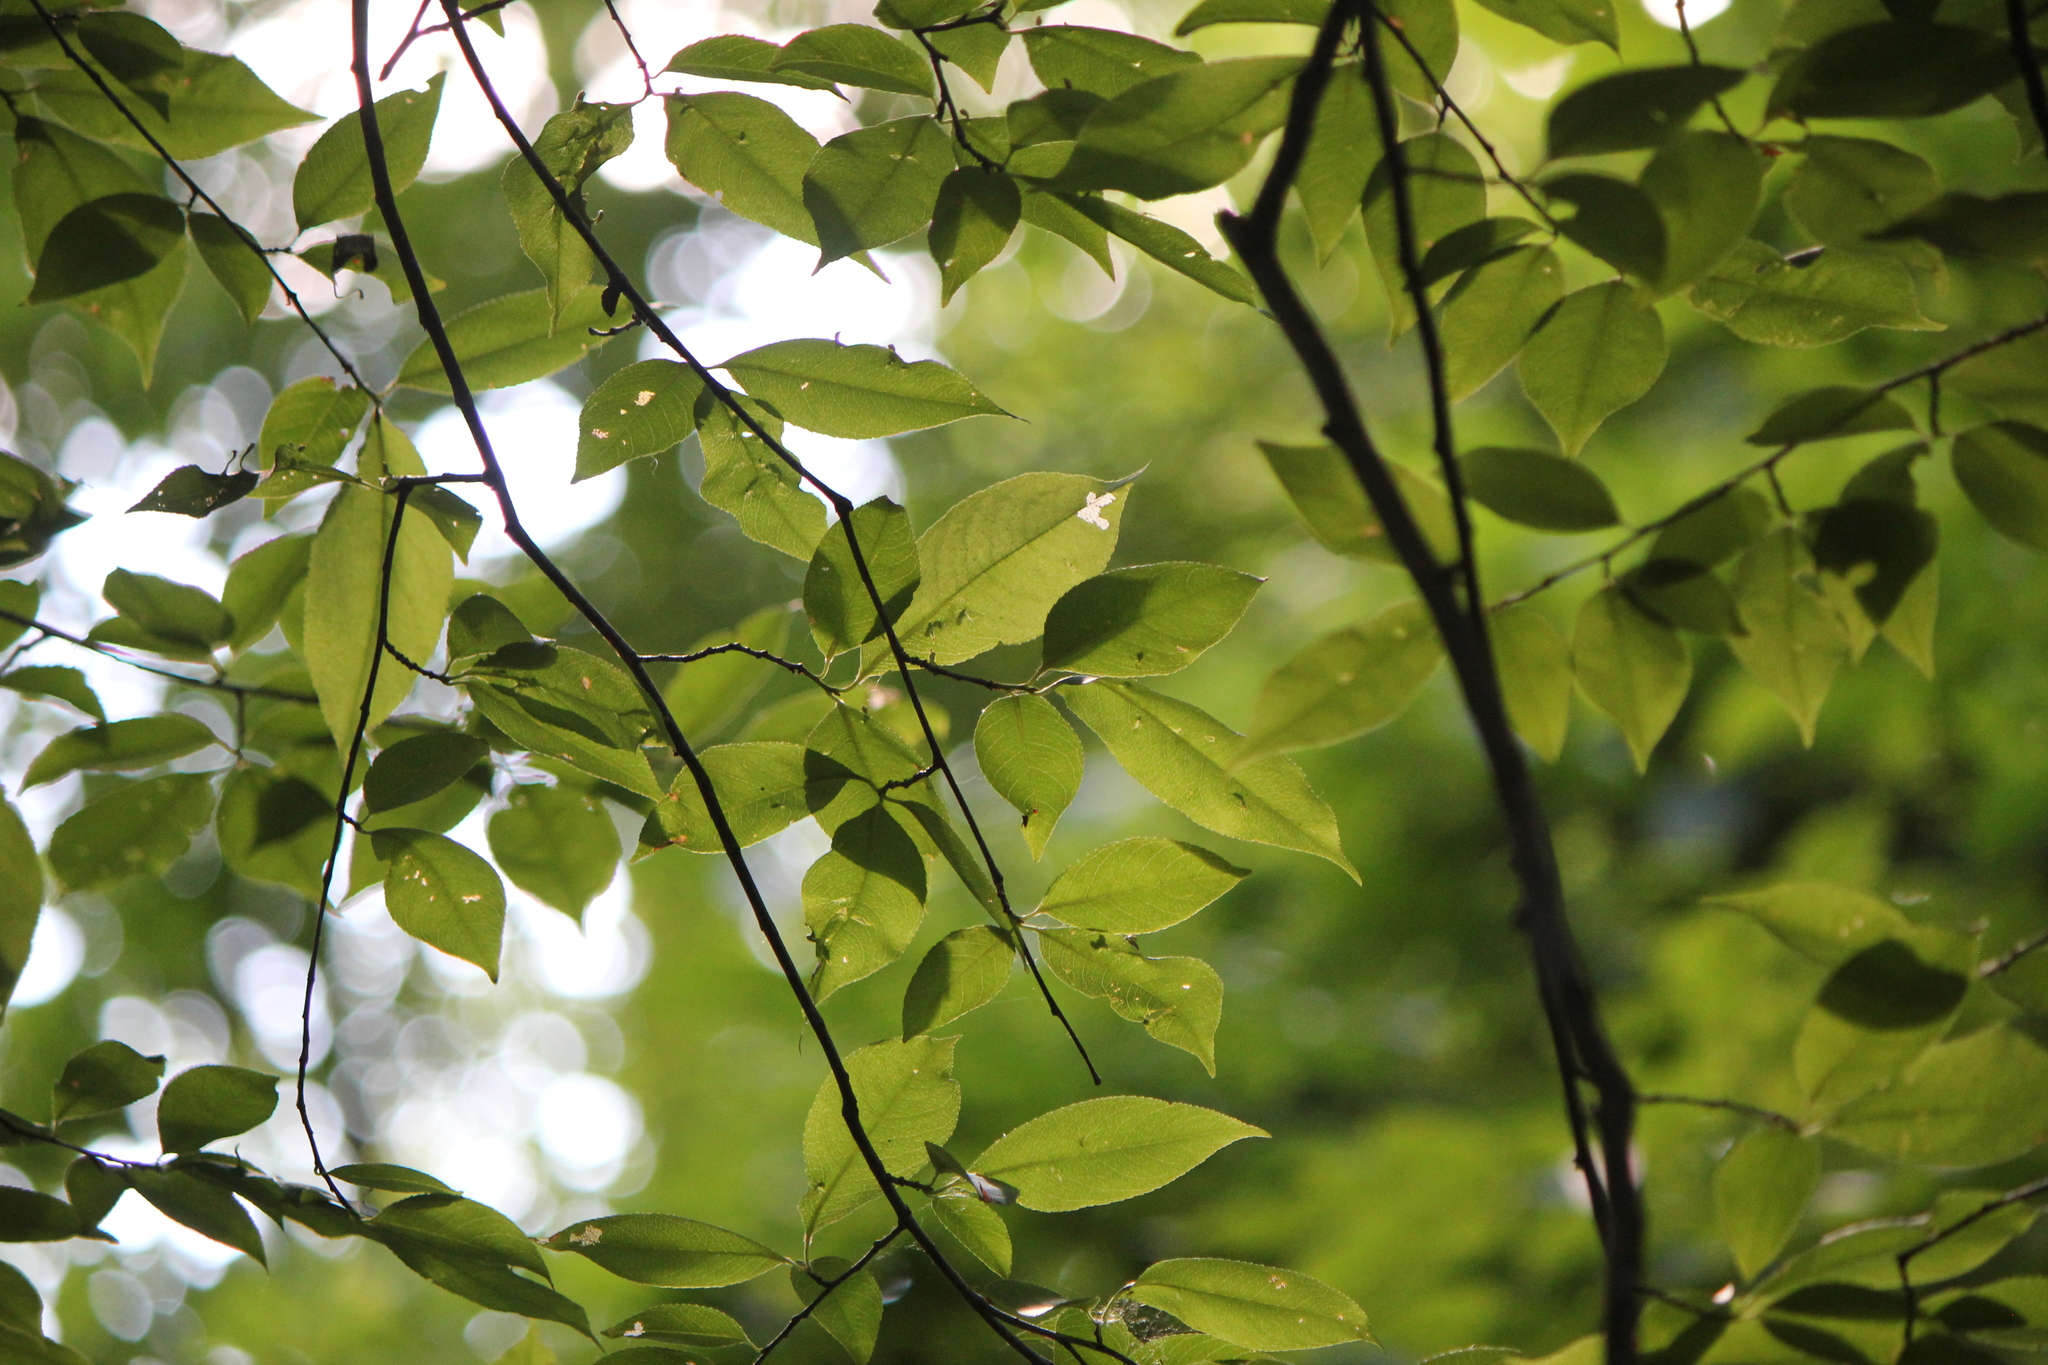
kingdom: Plantae
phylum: Tracheophyta
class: Magnoliopsida
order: Rosales
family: Rosaceae
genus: Prunus
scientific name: Prunus serotina
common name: Black cherry
